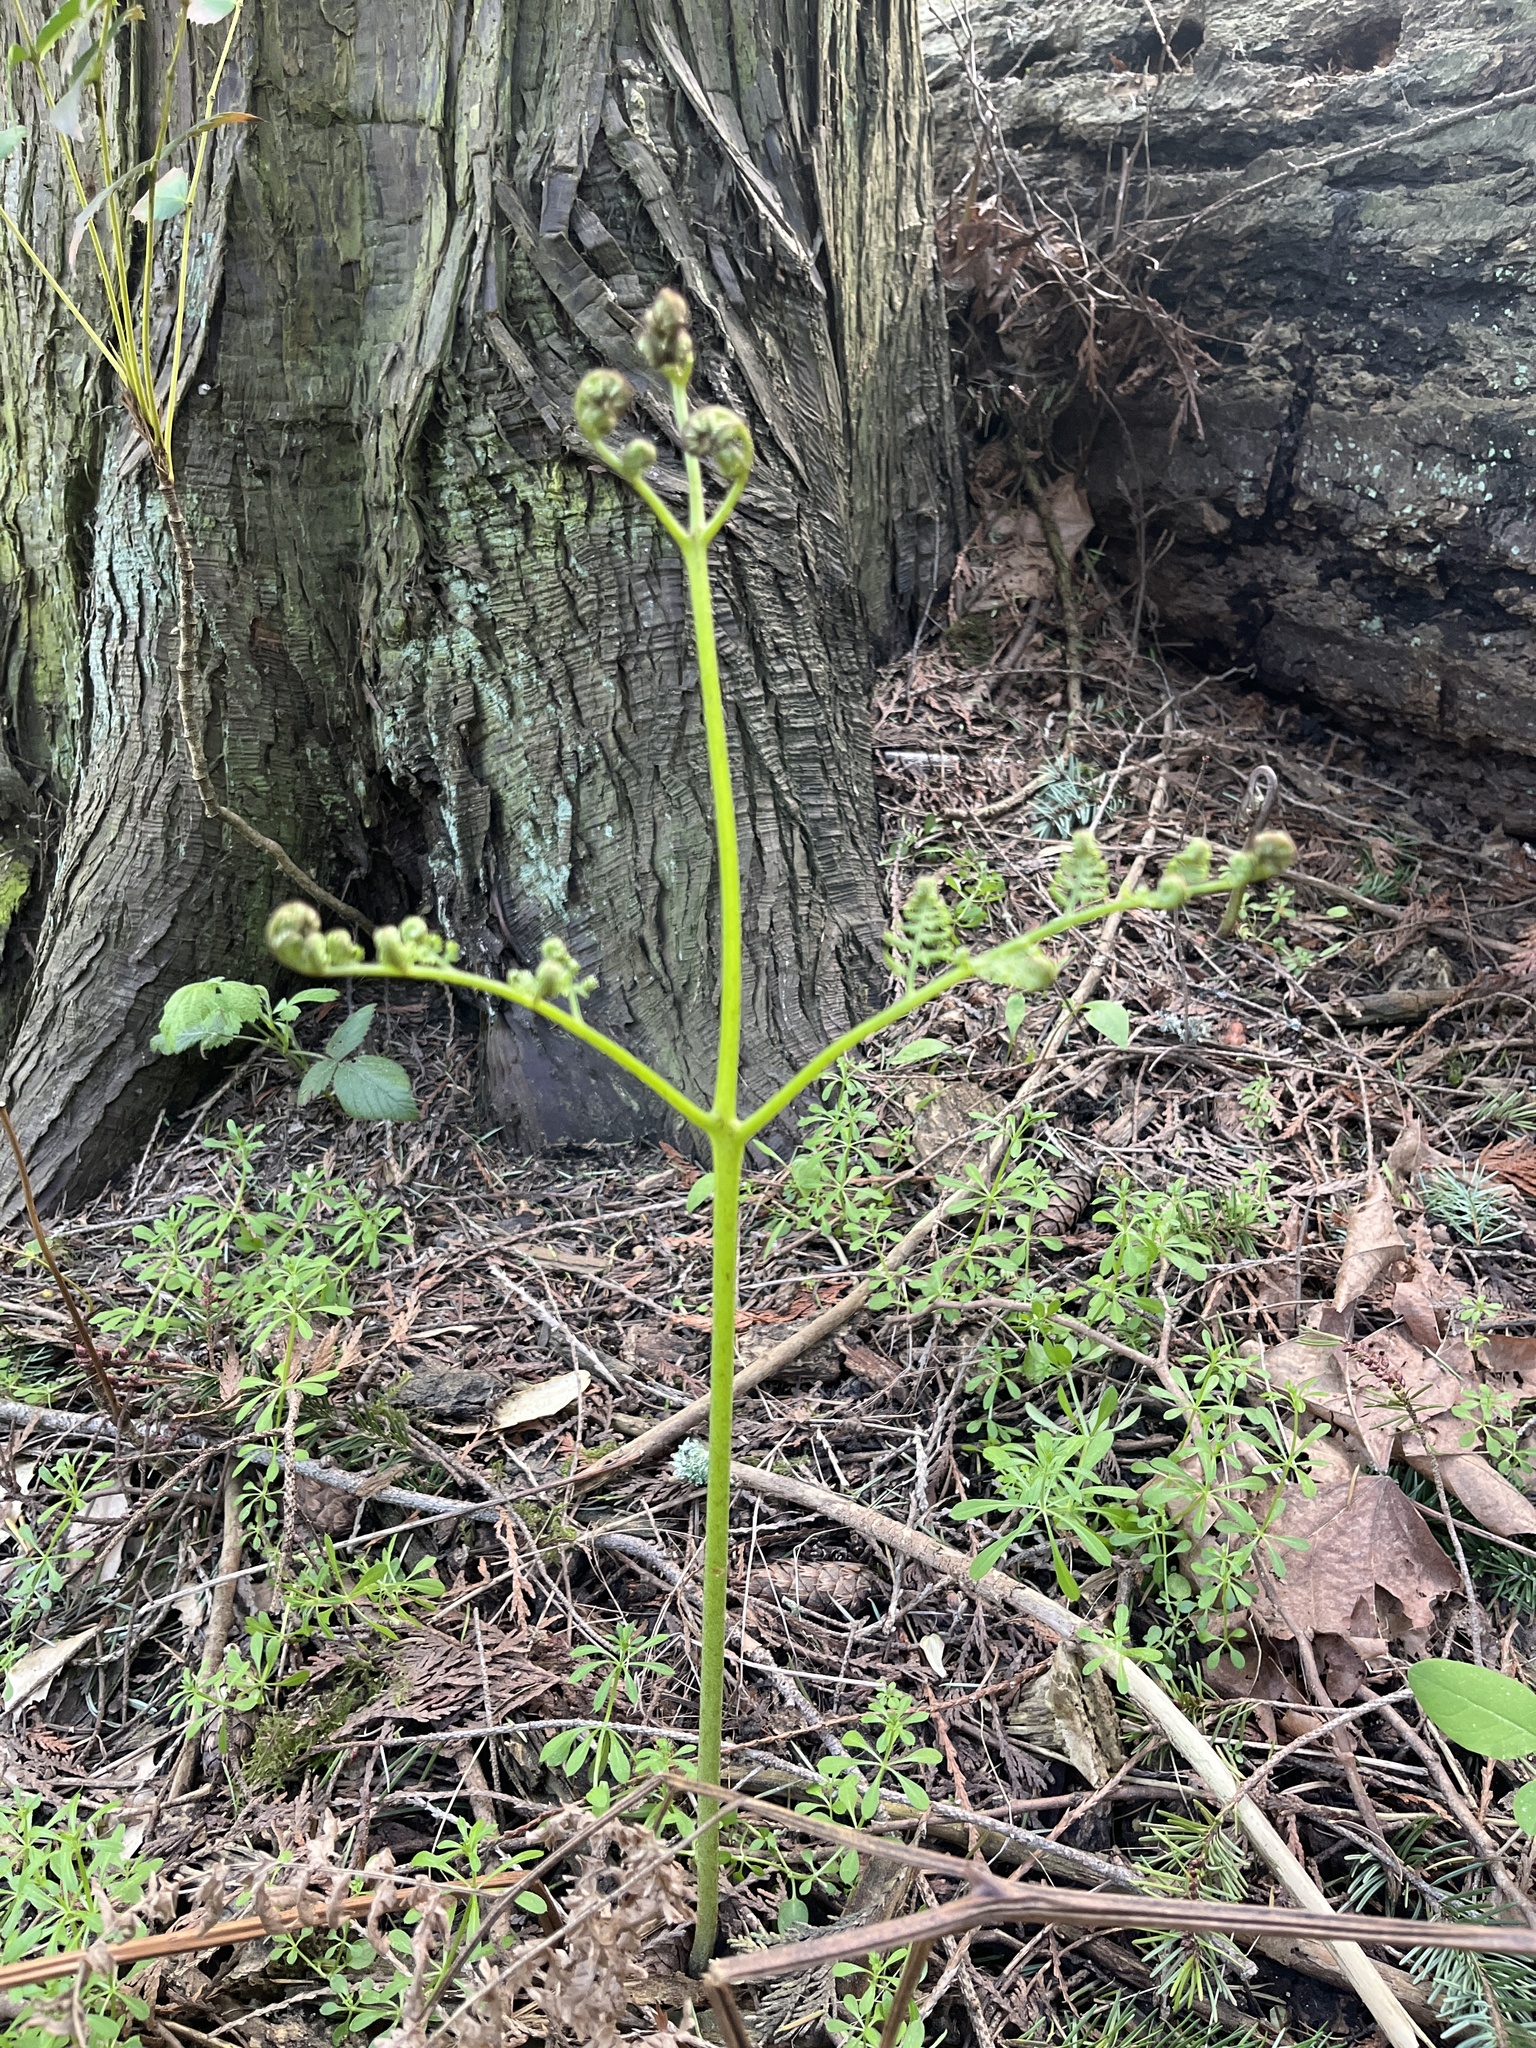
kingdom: Plantae
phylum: Tracheophyta
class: Polypodiopsida
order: Polypodiales
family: Dennstaedtiaceae
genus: Pteridium
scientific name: Pteridium aquilinum
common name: Bracken
